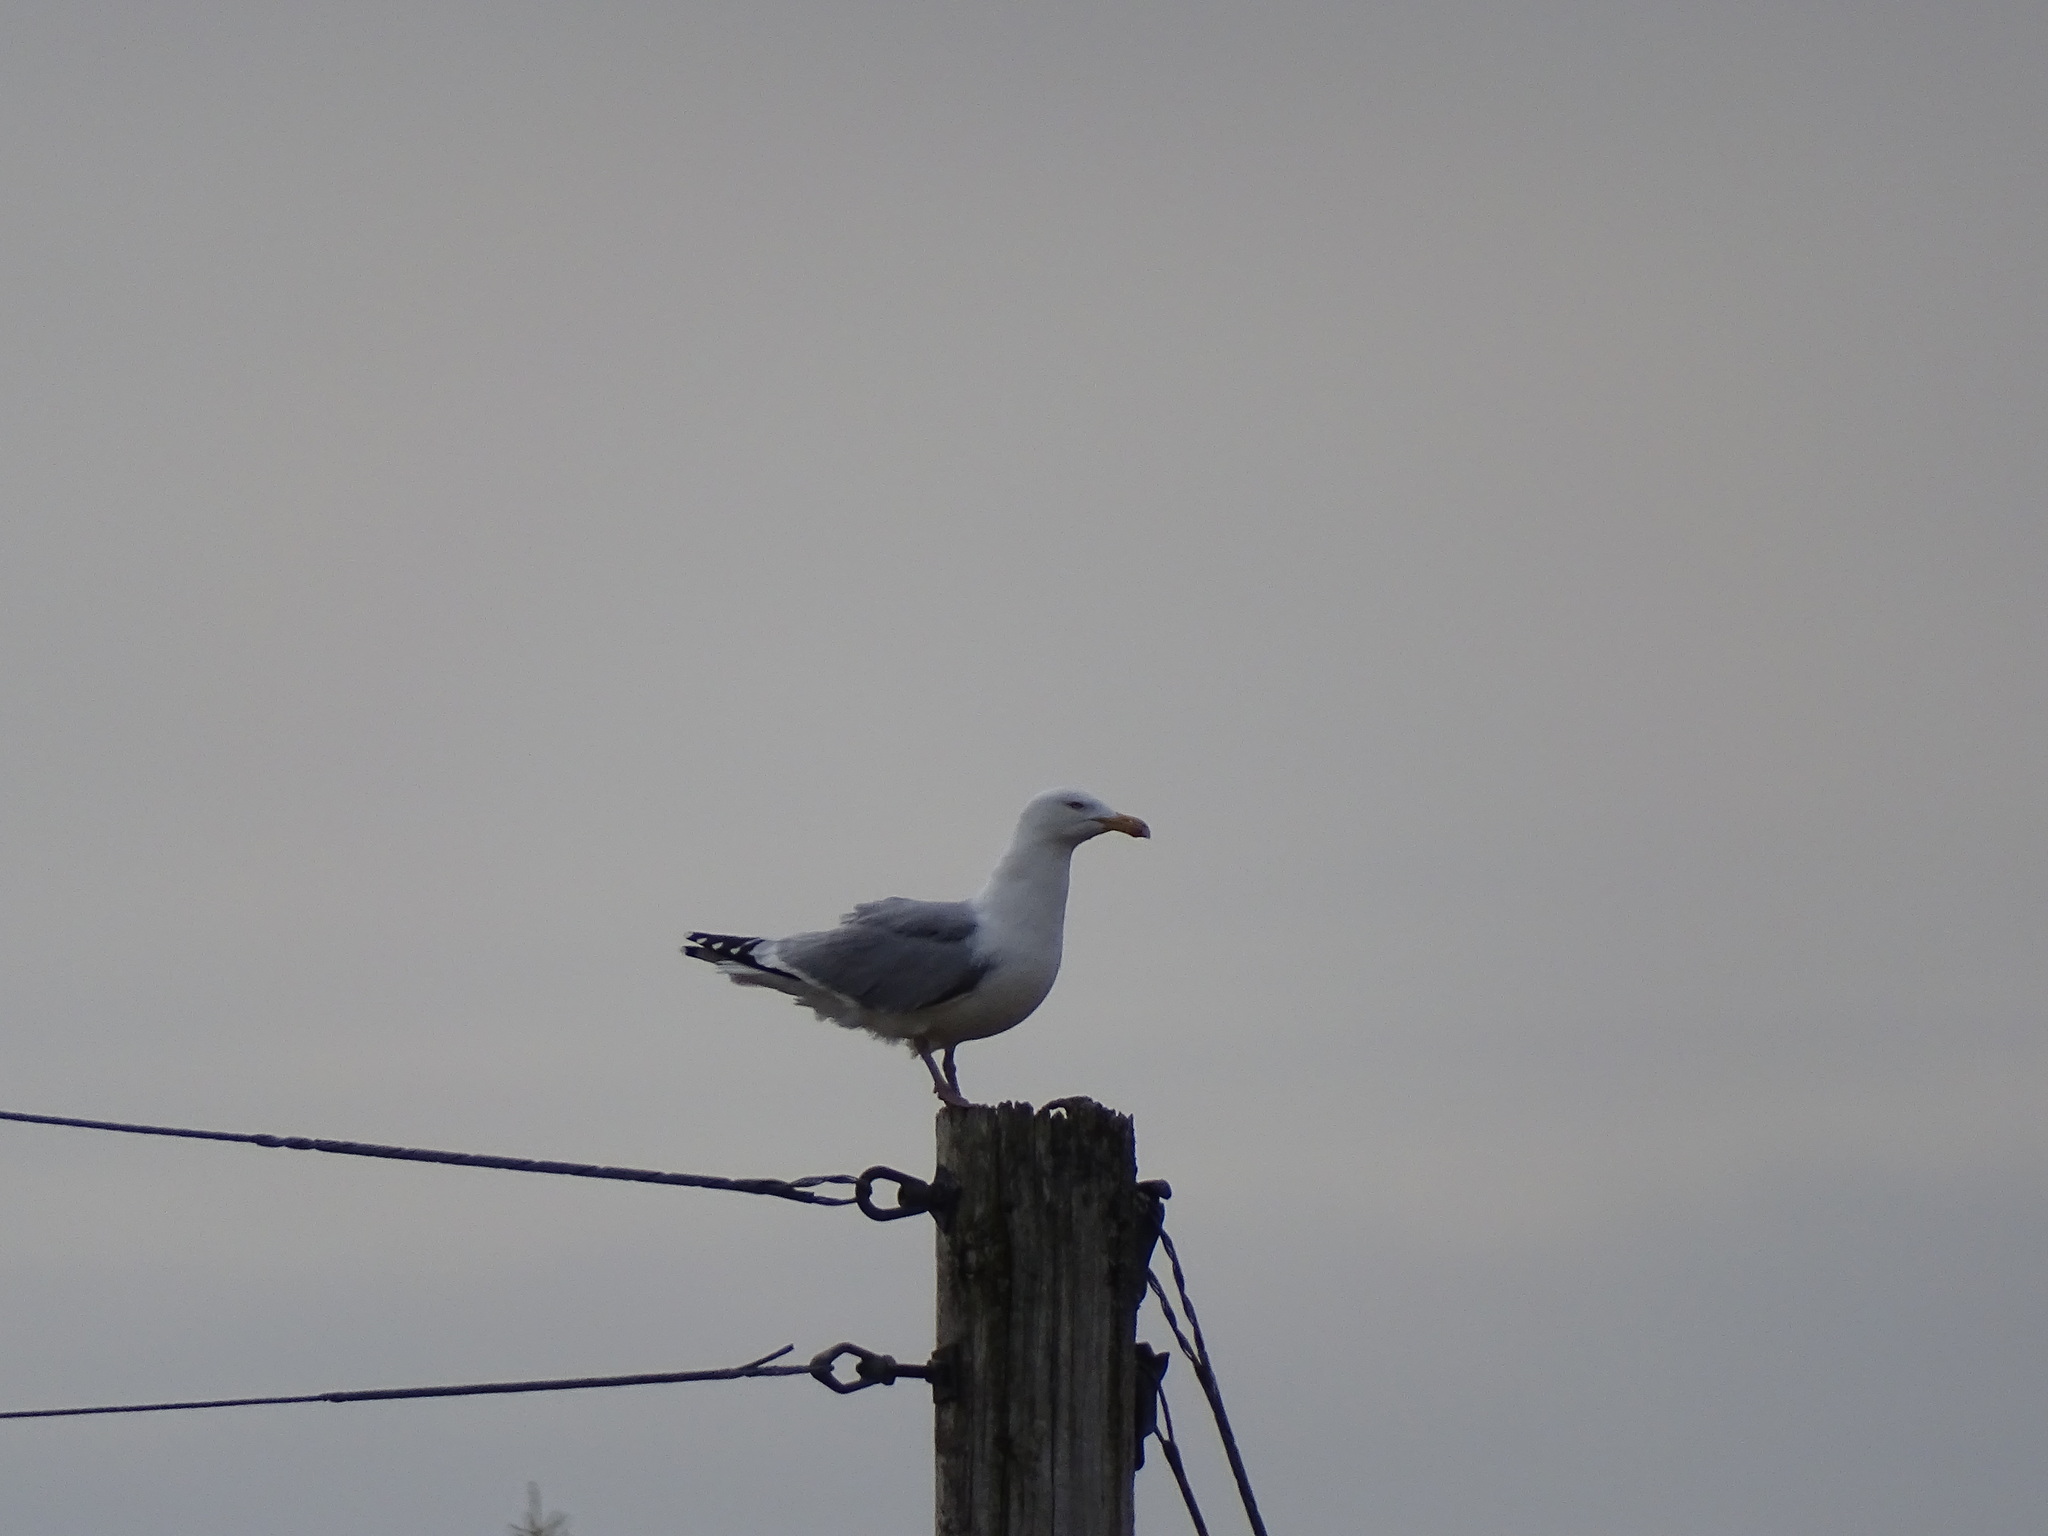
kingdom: Animalia
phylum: Chordata
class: Aves
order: Charadriiformes
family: Laridae
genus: Larus
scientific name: Larus smithsonianus
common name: American herring gull
